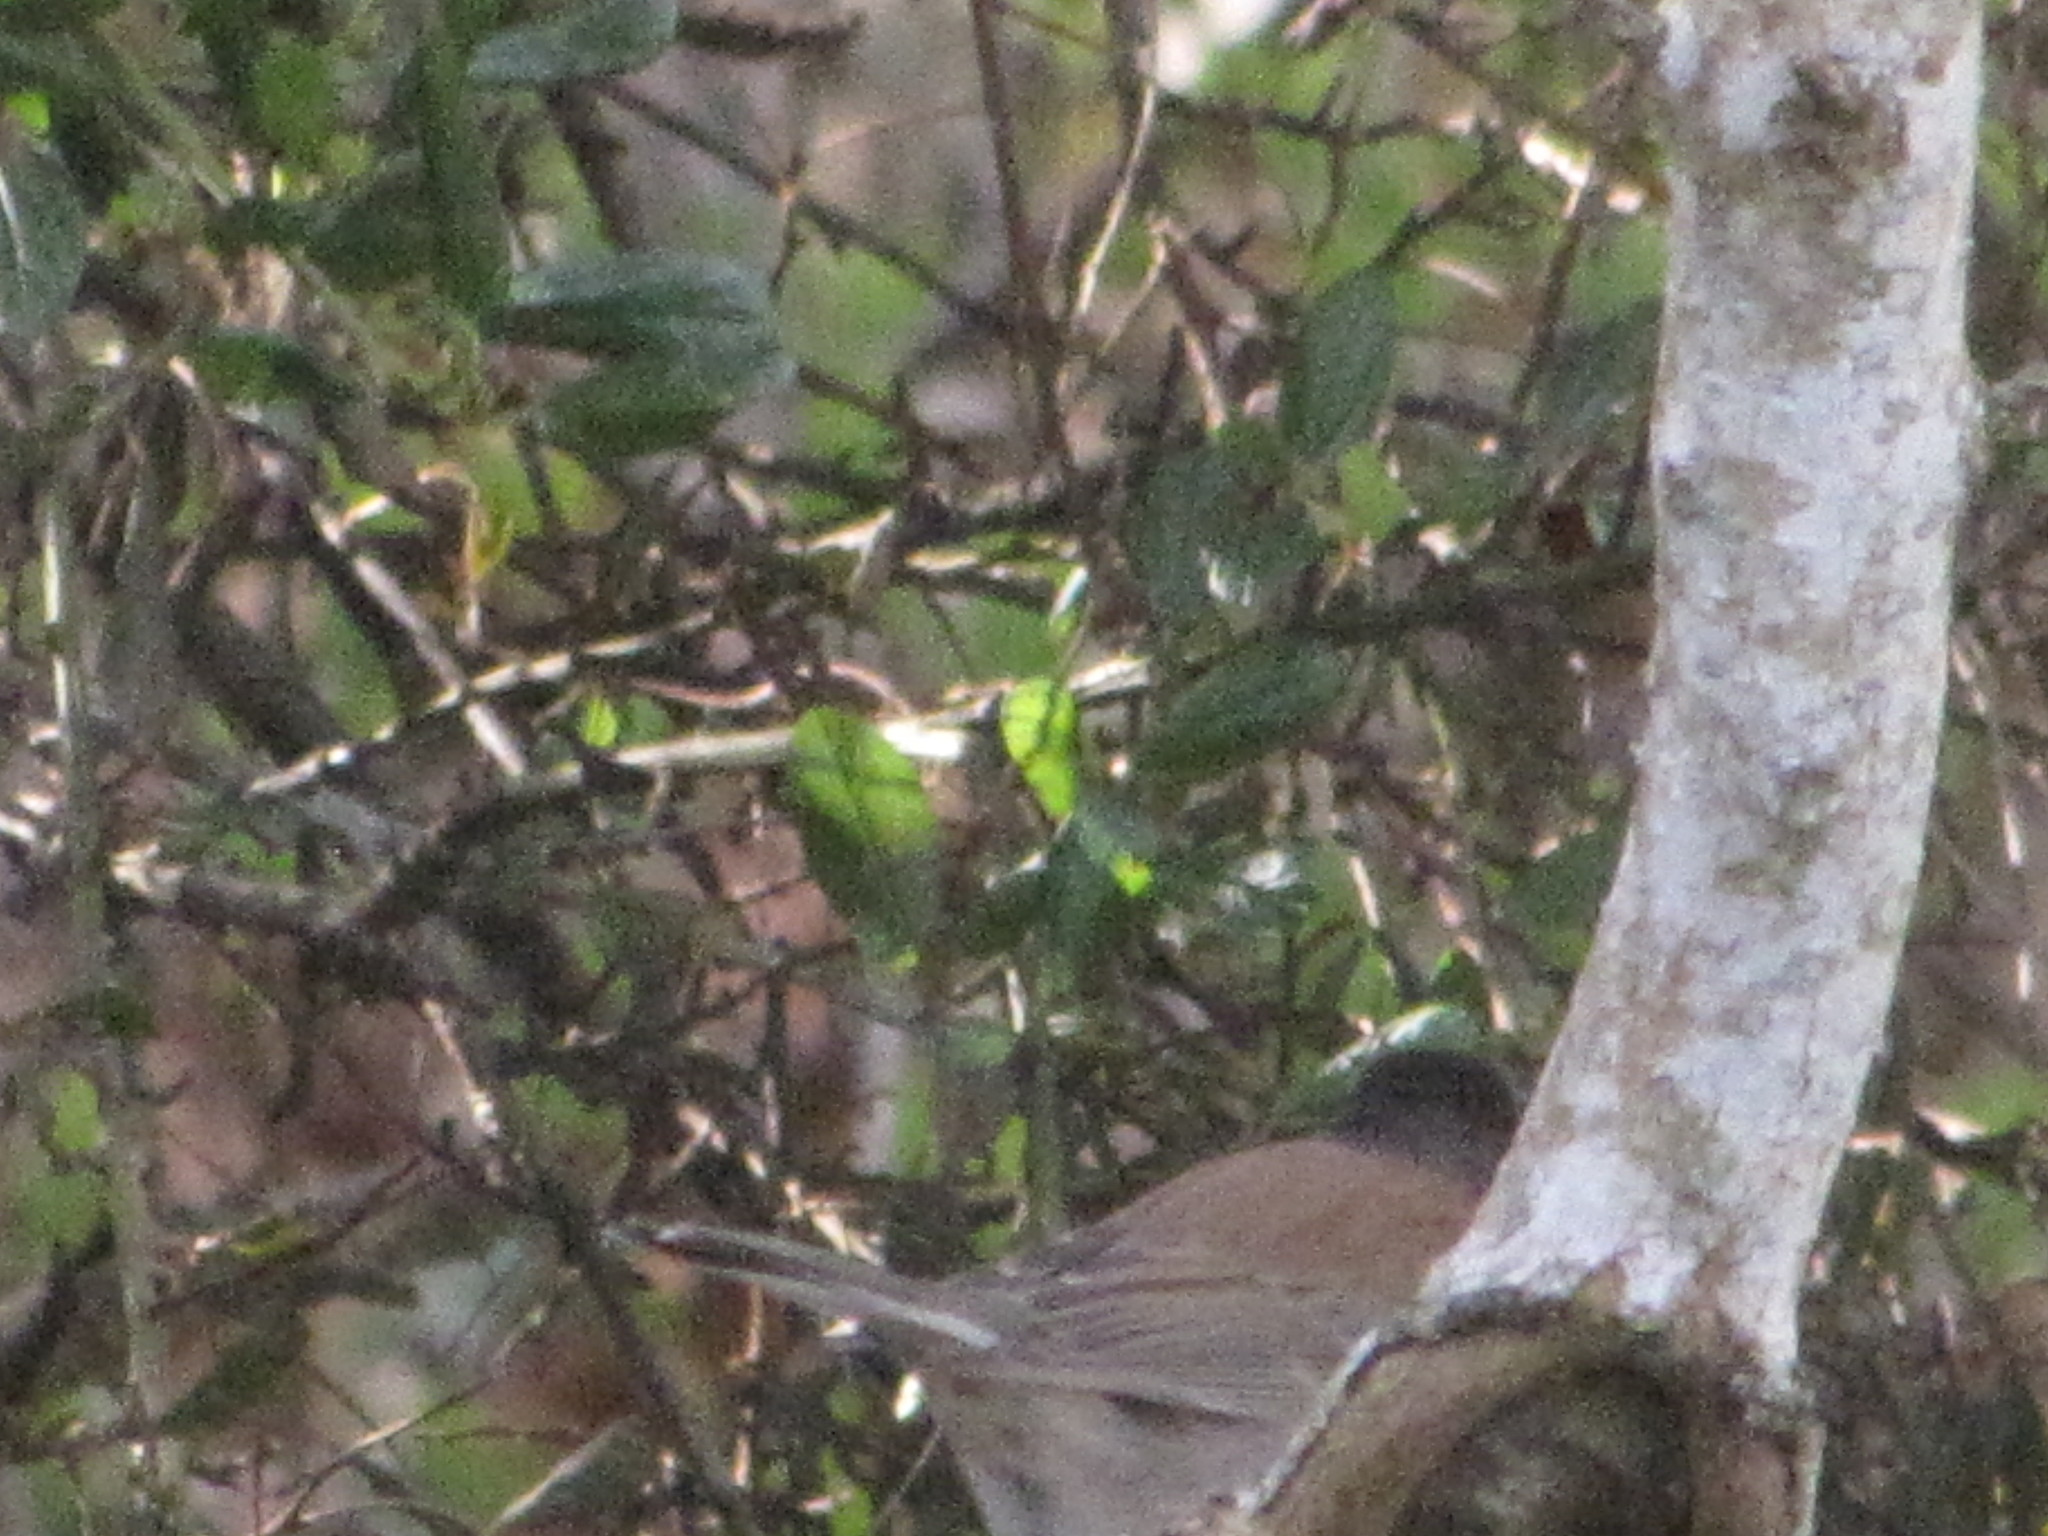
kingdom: Animalia
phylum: Chordata
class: Aves
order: Passeriformes
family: Passerellidae
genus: Junco
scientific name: Junco hyemalis
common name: Dark-eyed junco
